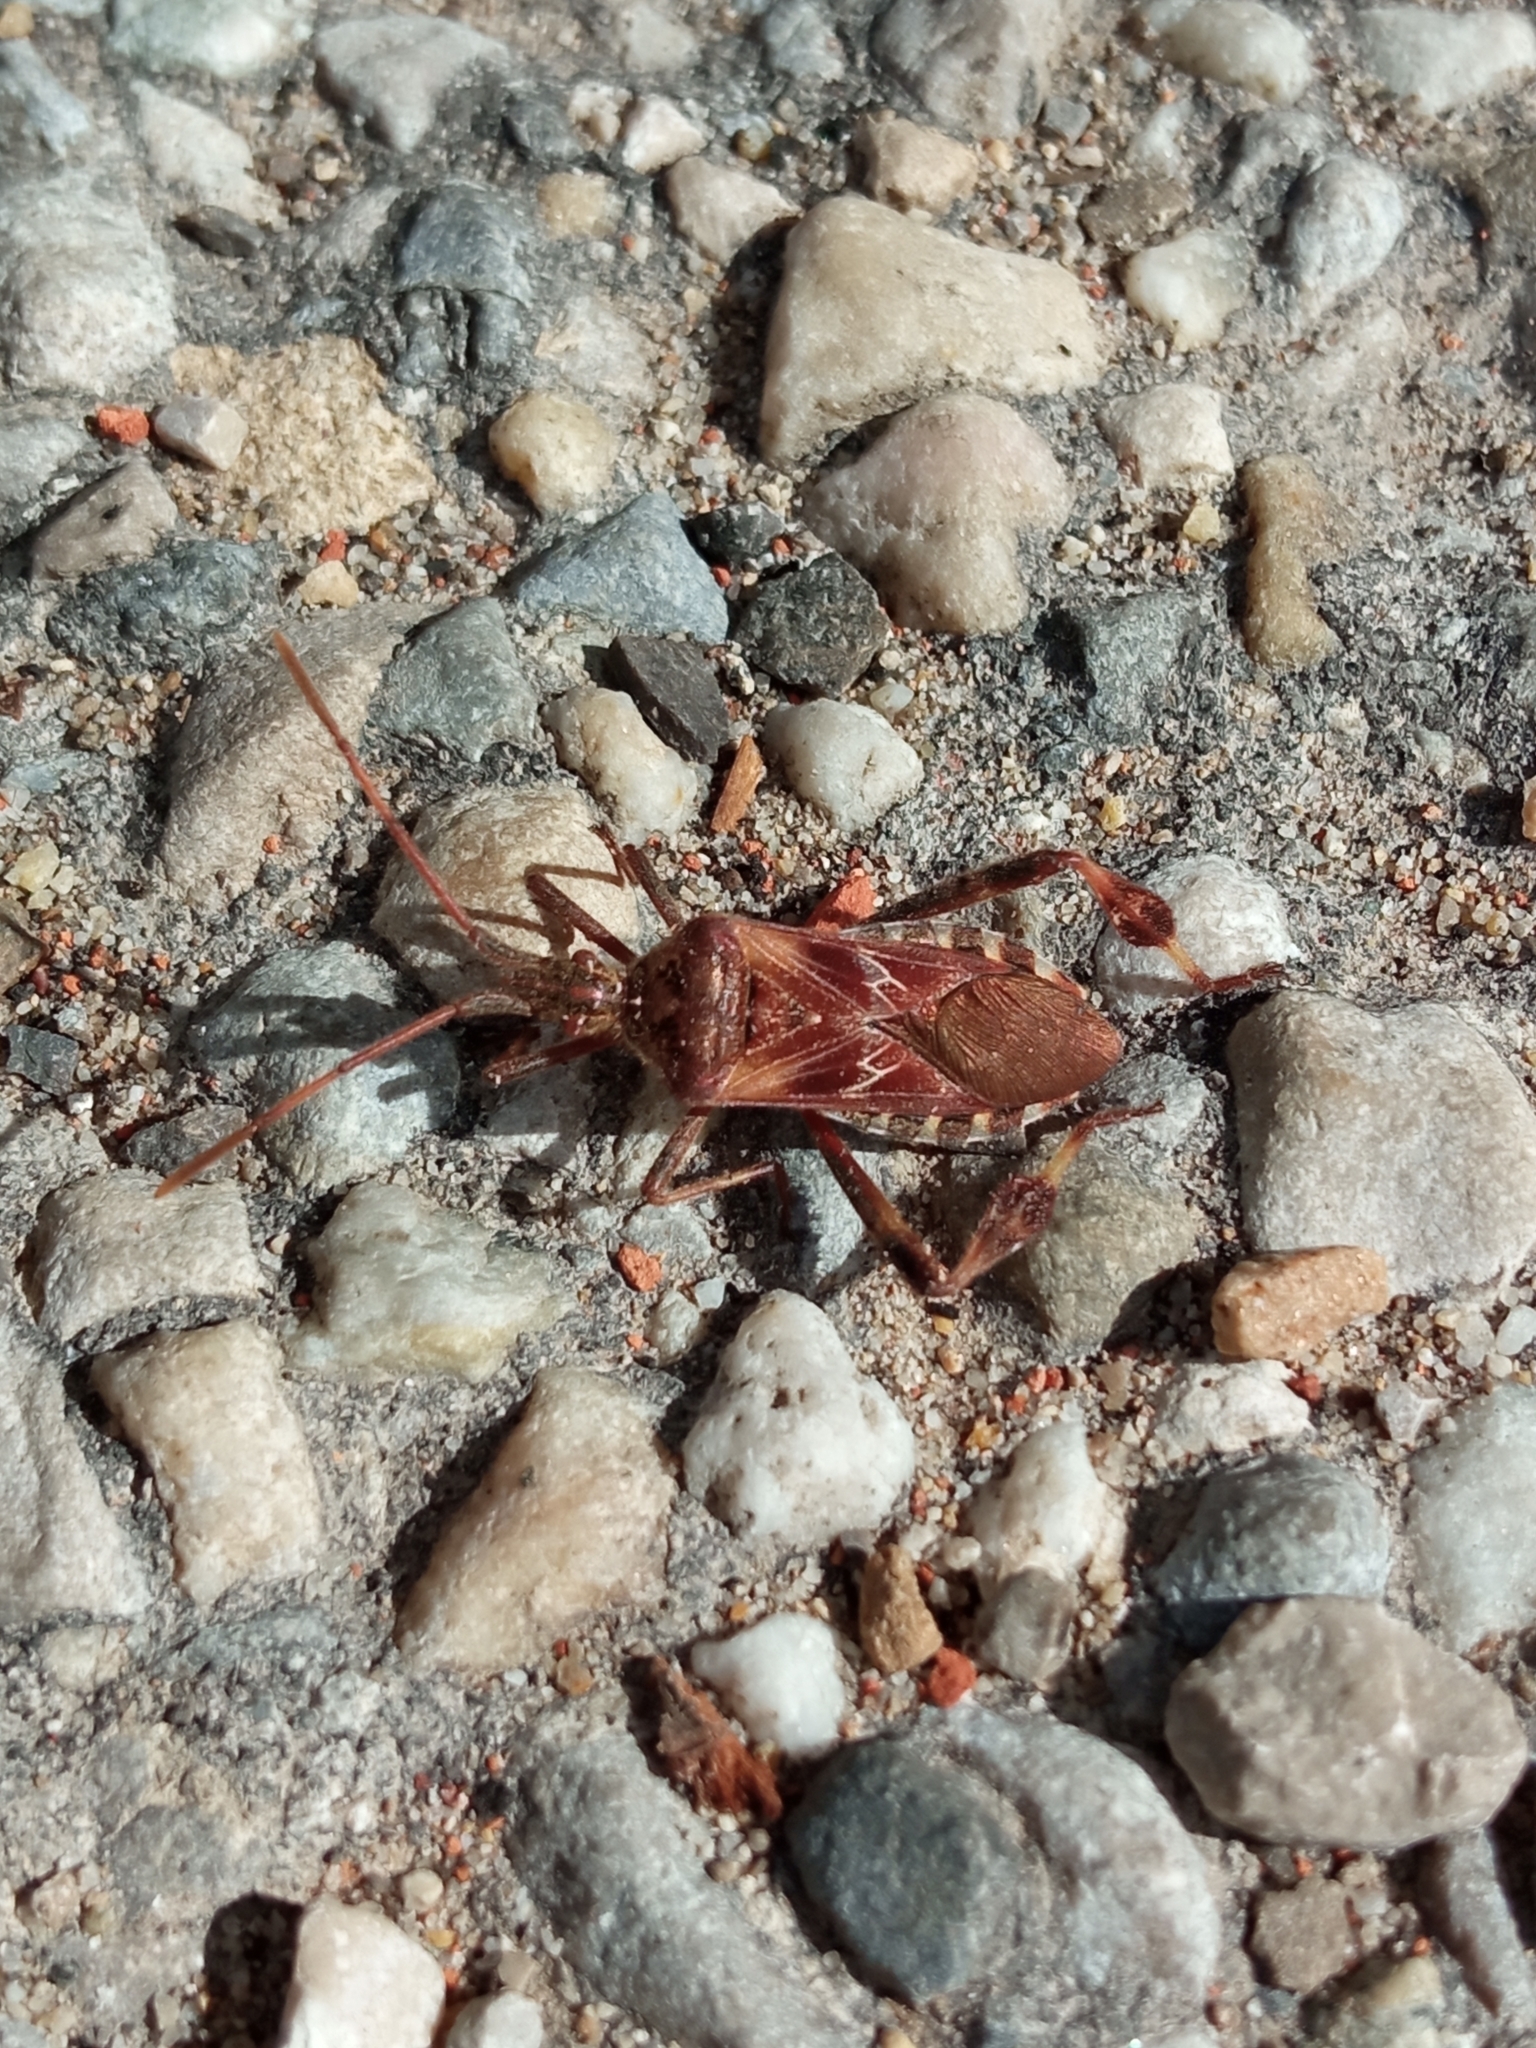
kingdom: Animalia
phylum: Arthropoda
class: Insecta
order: Hemiptera
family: Coreidae
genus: Leptoglossus
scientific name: Leptoglossus occidentalis
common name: Western conifer-seed bug
